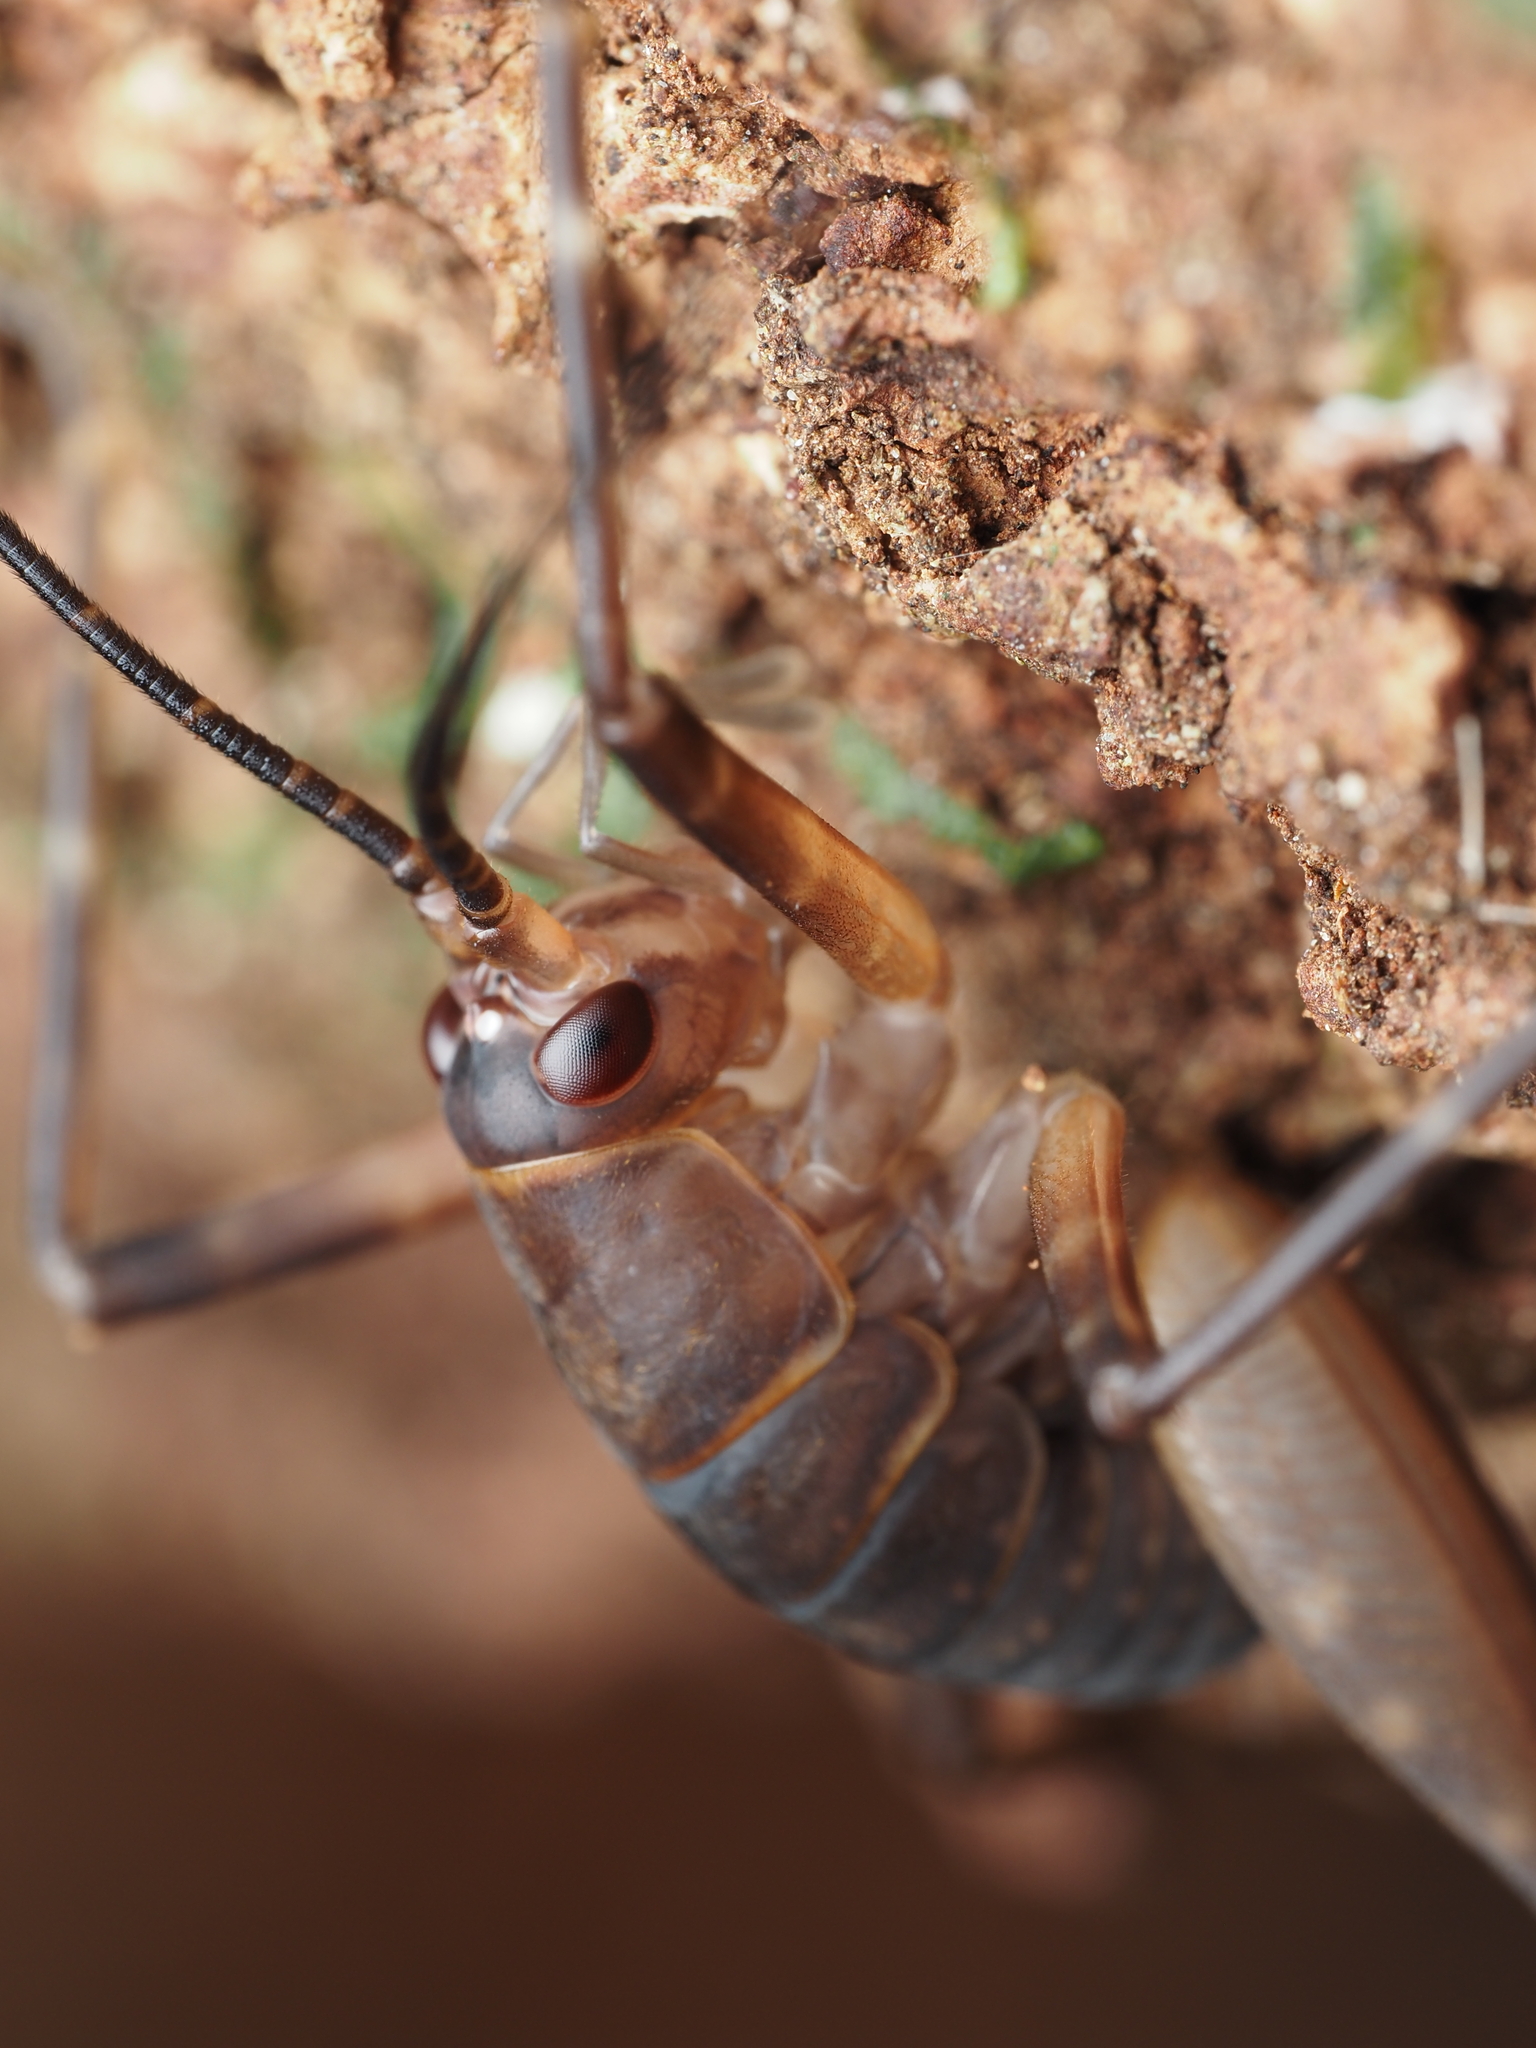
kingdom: Animalia
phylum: Arthropoda
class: Insecta
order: Orthoptera
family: Rhaphidophoridae
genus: Pachyrhamma
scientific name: Pachyrhamma longipes
